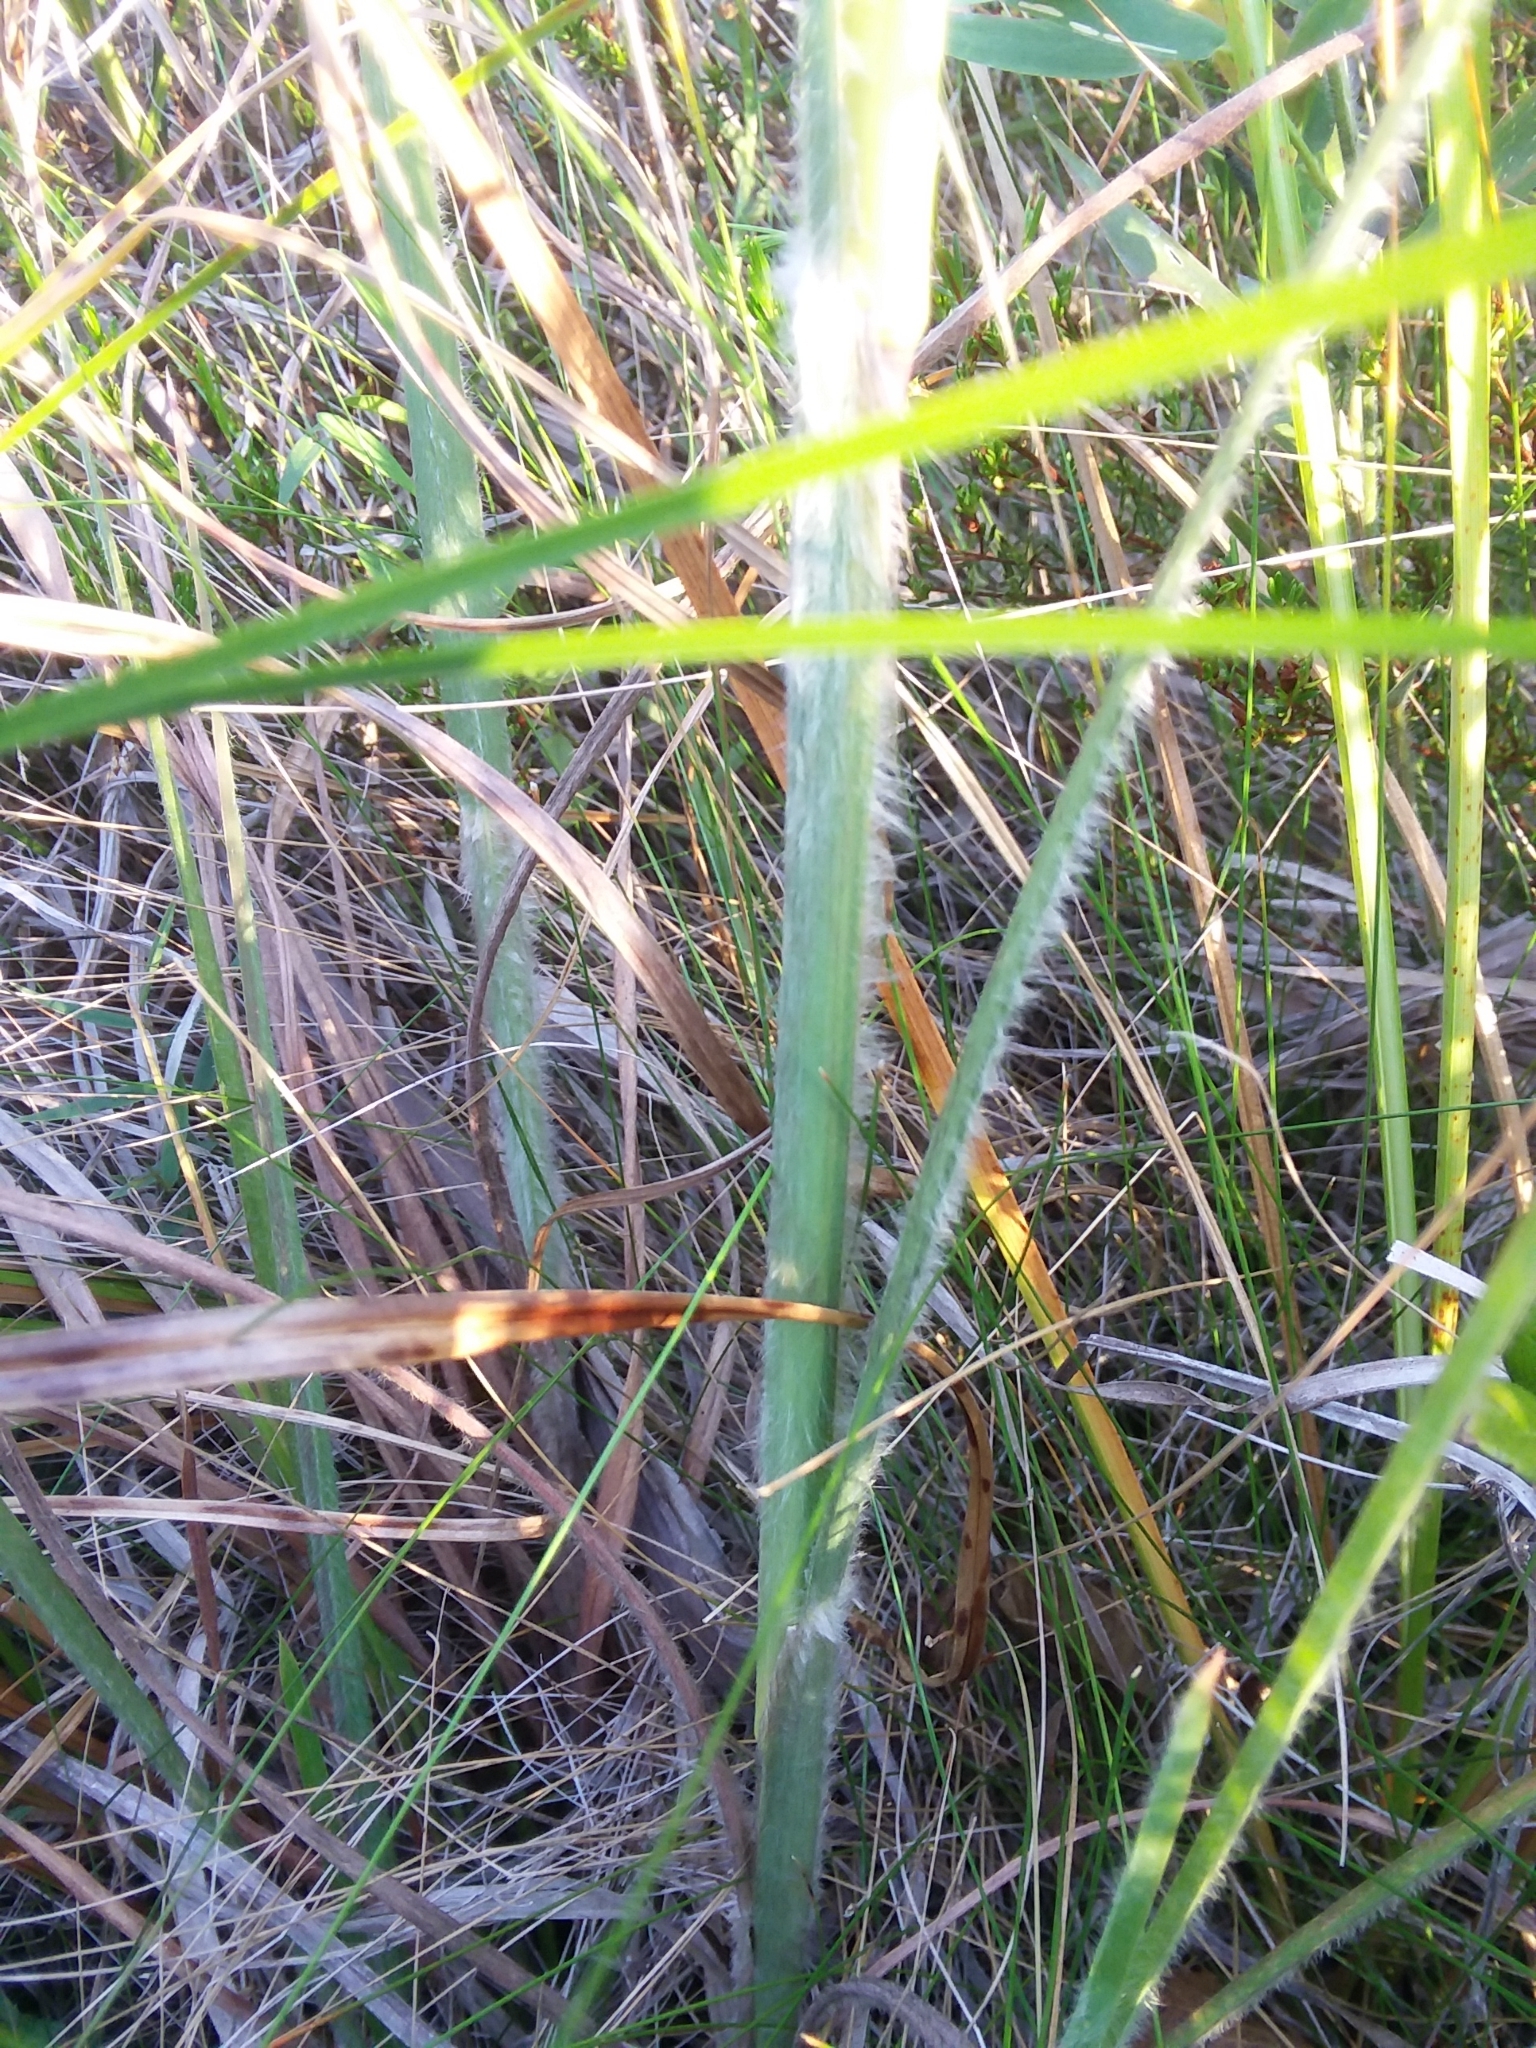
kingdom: Plantae
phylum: Tracheophyta
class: Liliopsida
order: Poales
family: Poaceae
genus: Andropogon
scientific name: Andropogon mohrii
